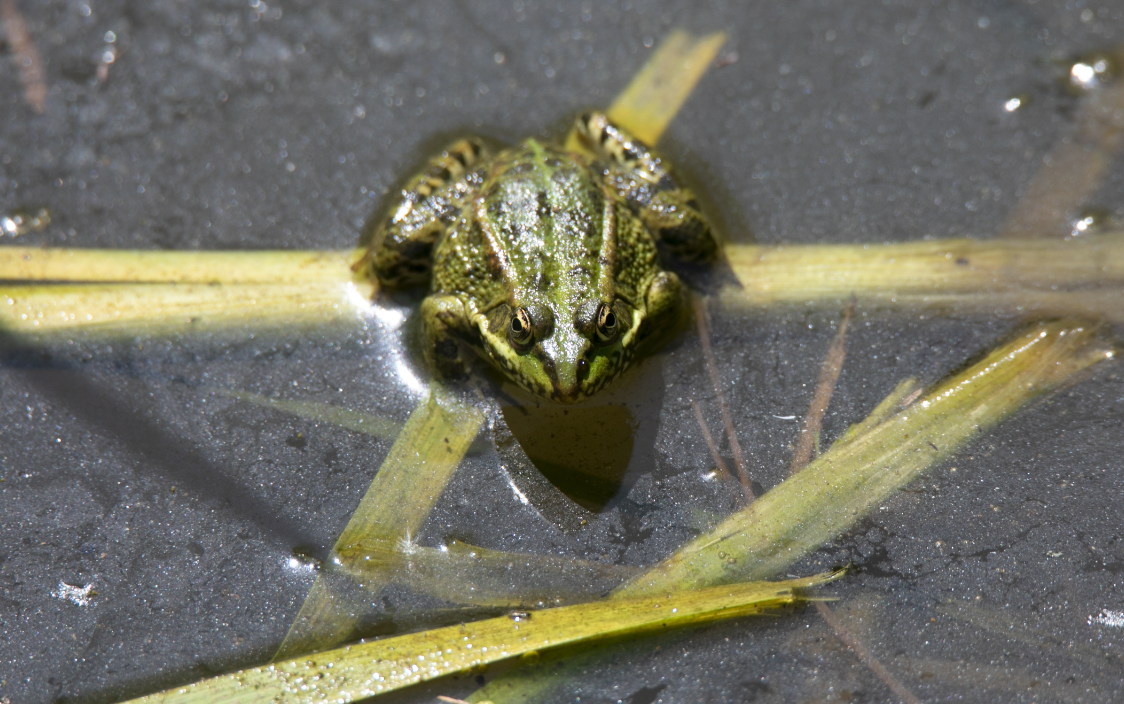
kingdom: Animalia
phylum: Chordata
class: Amphibia
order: Anura
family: Ranidae
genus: Pelophylax
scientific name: Pelophylax
